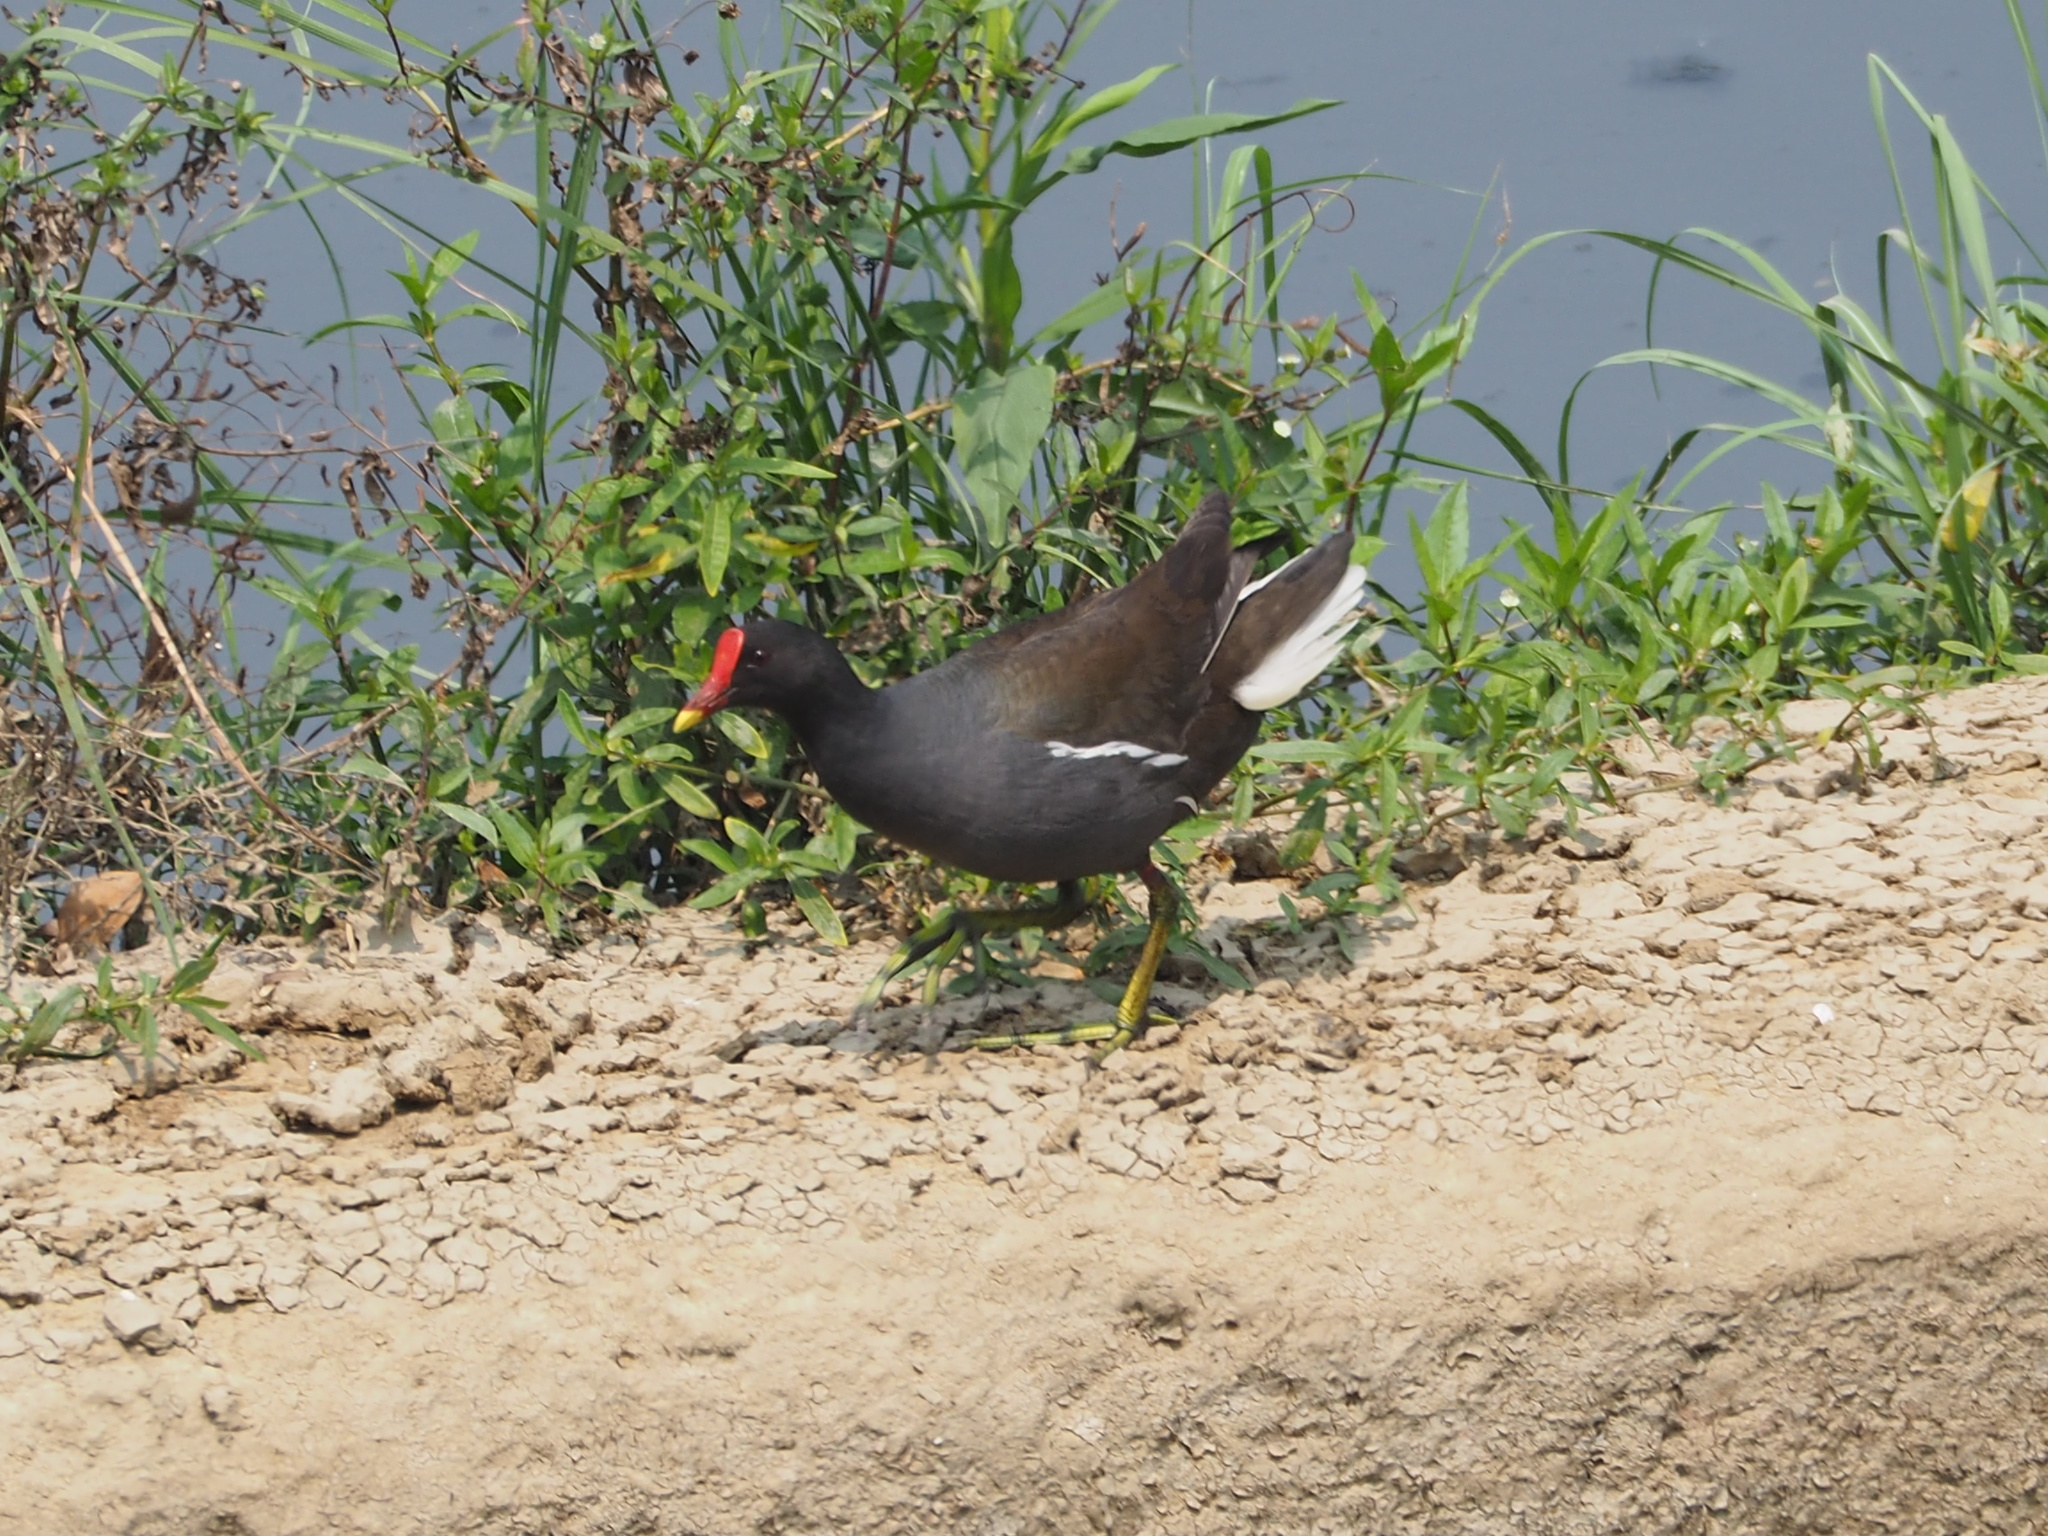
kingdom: Animalia
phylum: Chordata
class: Aves
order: Gruiformes
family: Rallidae
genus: Gallinula
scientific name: Gallinula chloropus
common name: Common moorhen
